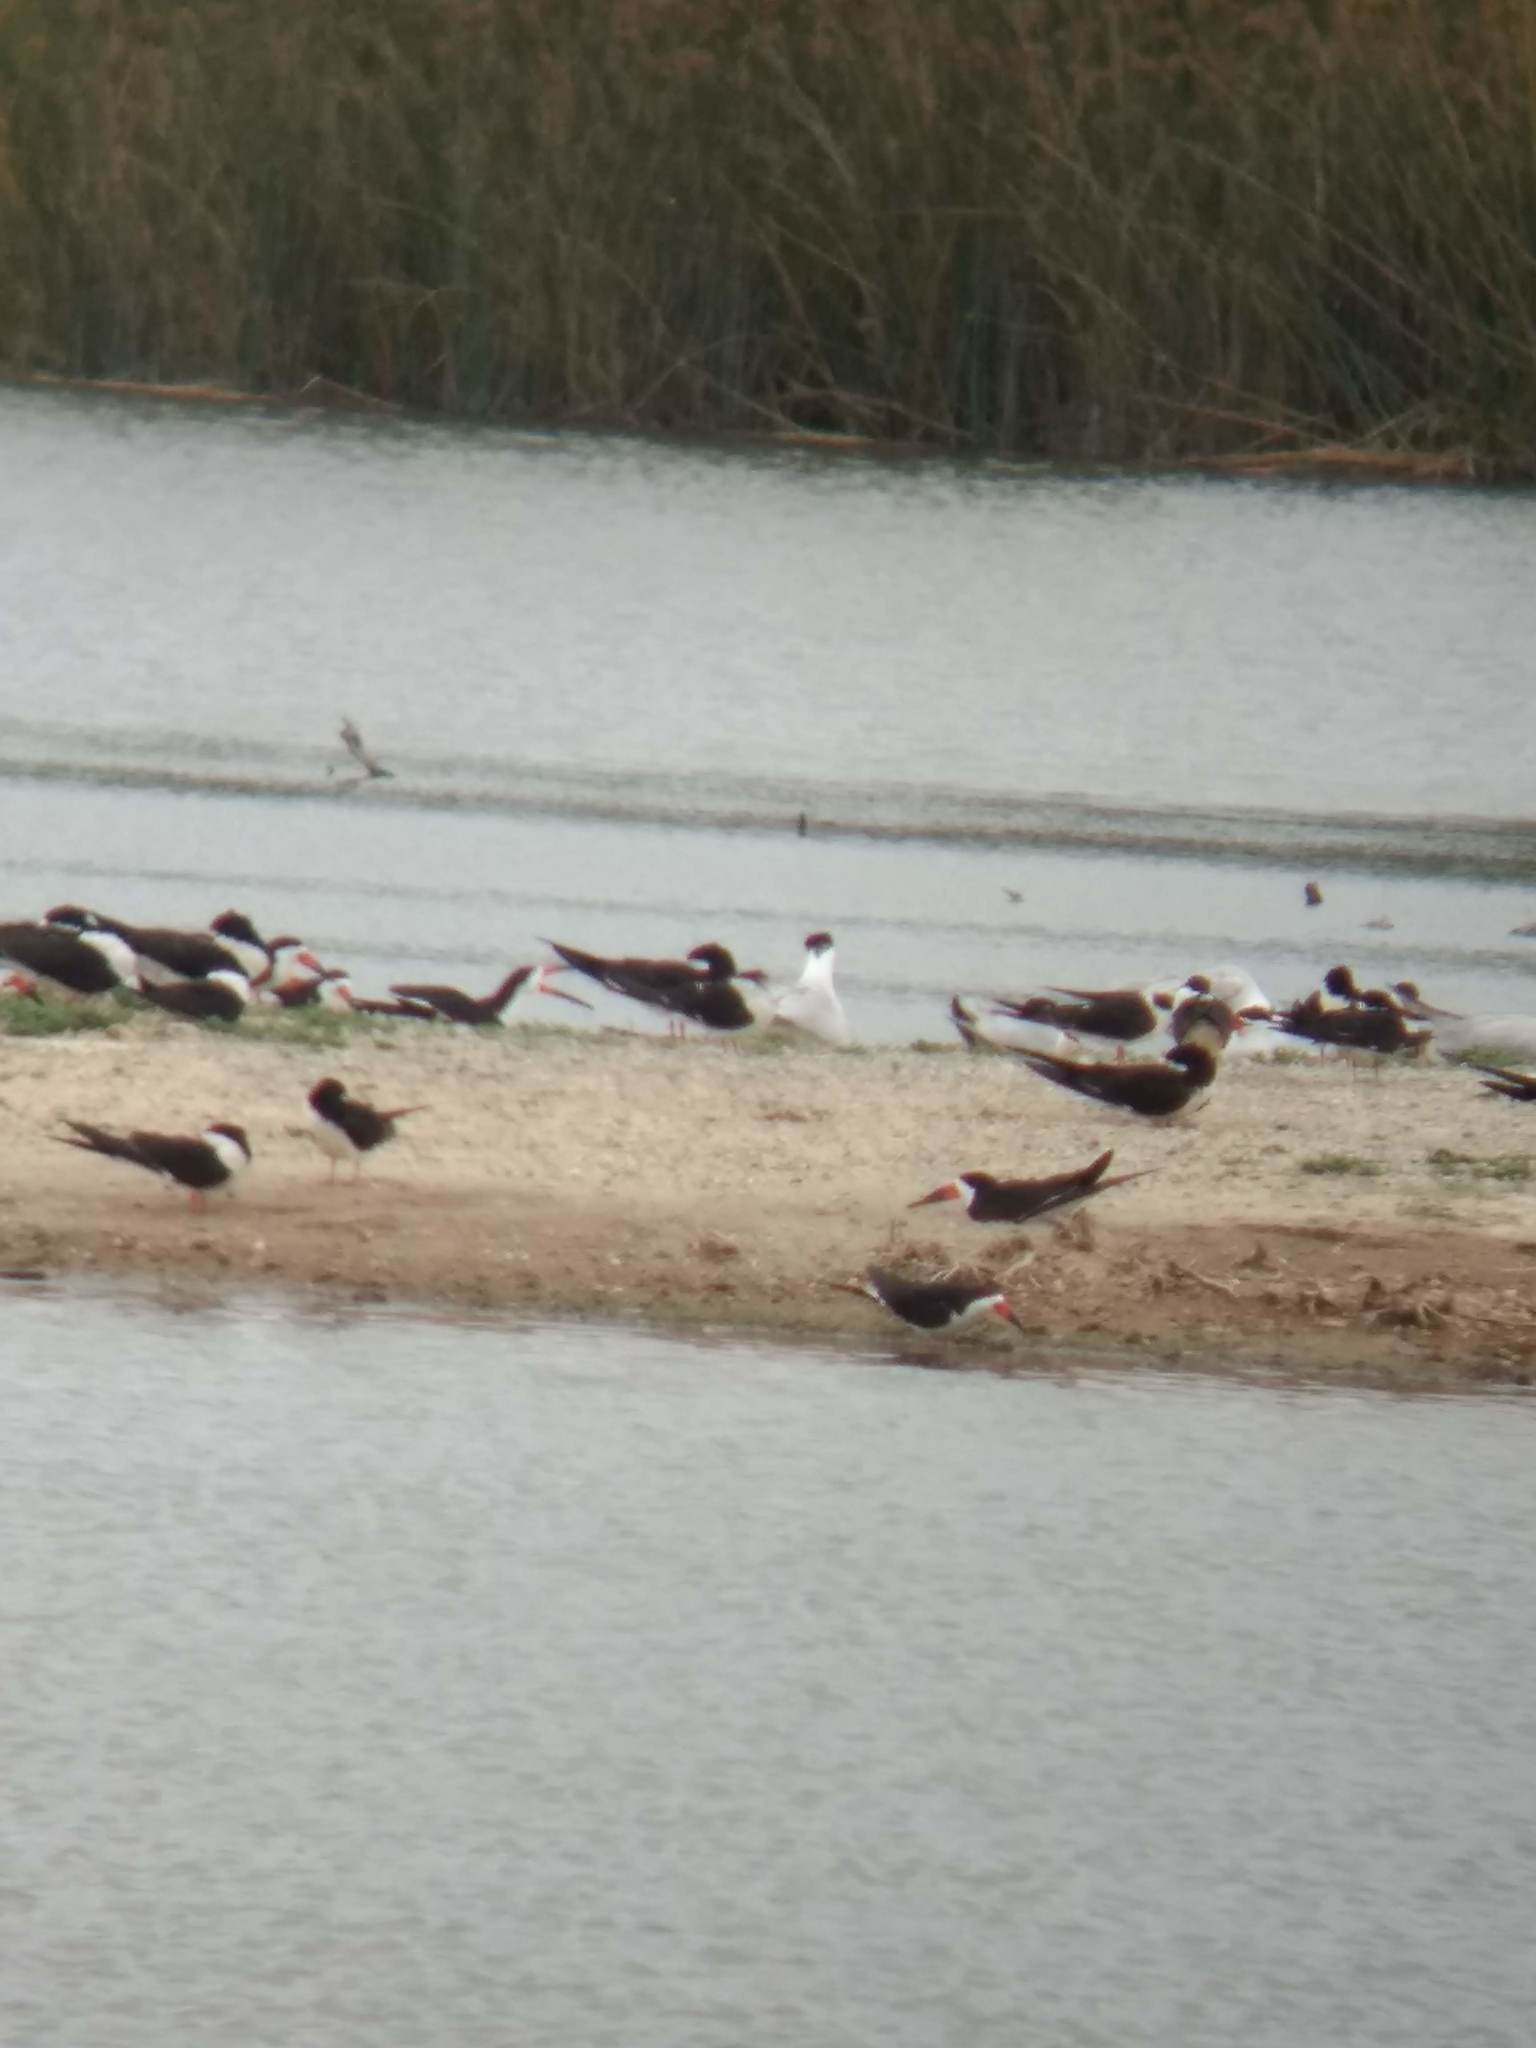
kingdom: Animalia
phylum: Chordata
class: Aves
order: Charadriiformes
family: Laridae
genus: Rynchops
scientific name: Rynchops niger
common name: Black skimmer
